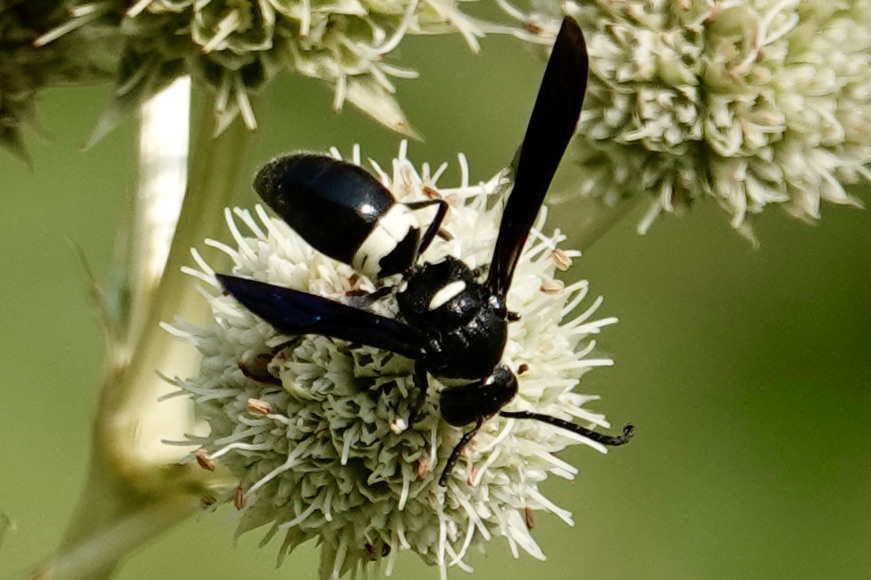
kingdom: Animalia
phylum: Arthropoda
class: Insecta
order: Hymenoptera
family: Eumenidae
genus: Monobia
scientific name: Monobia quadridens
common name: Four-toothed mason wasp
